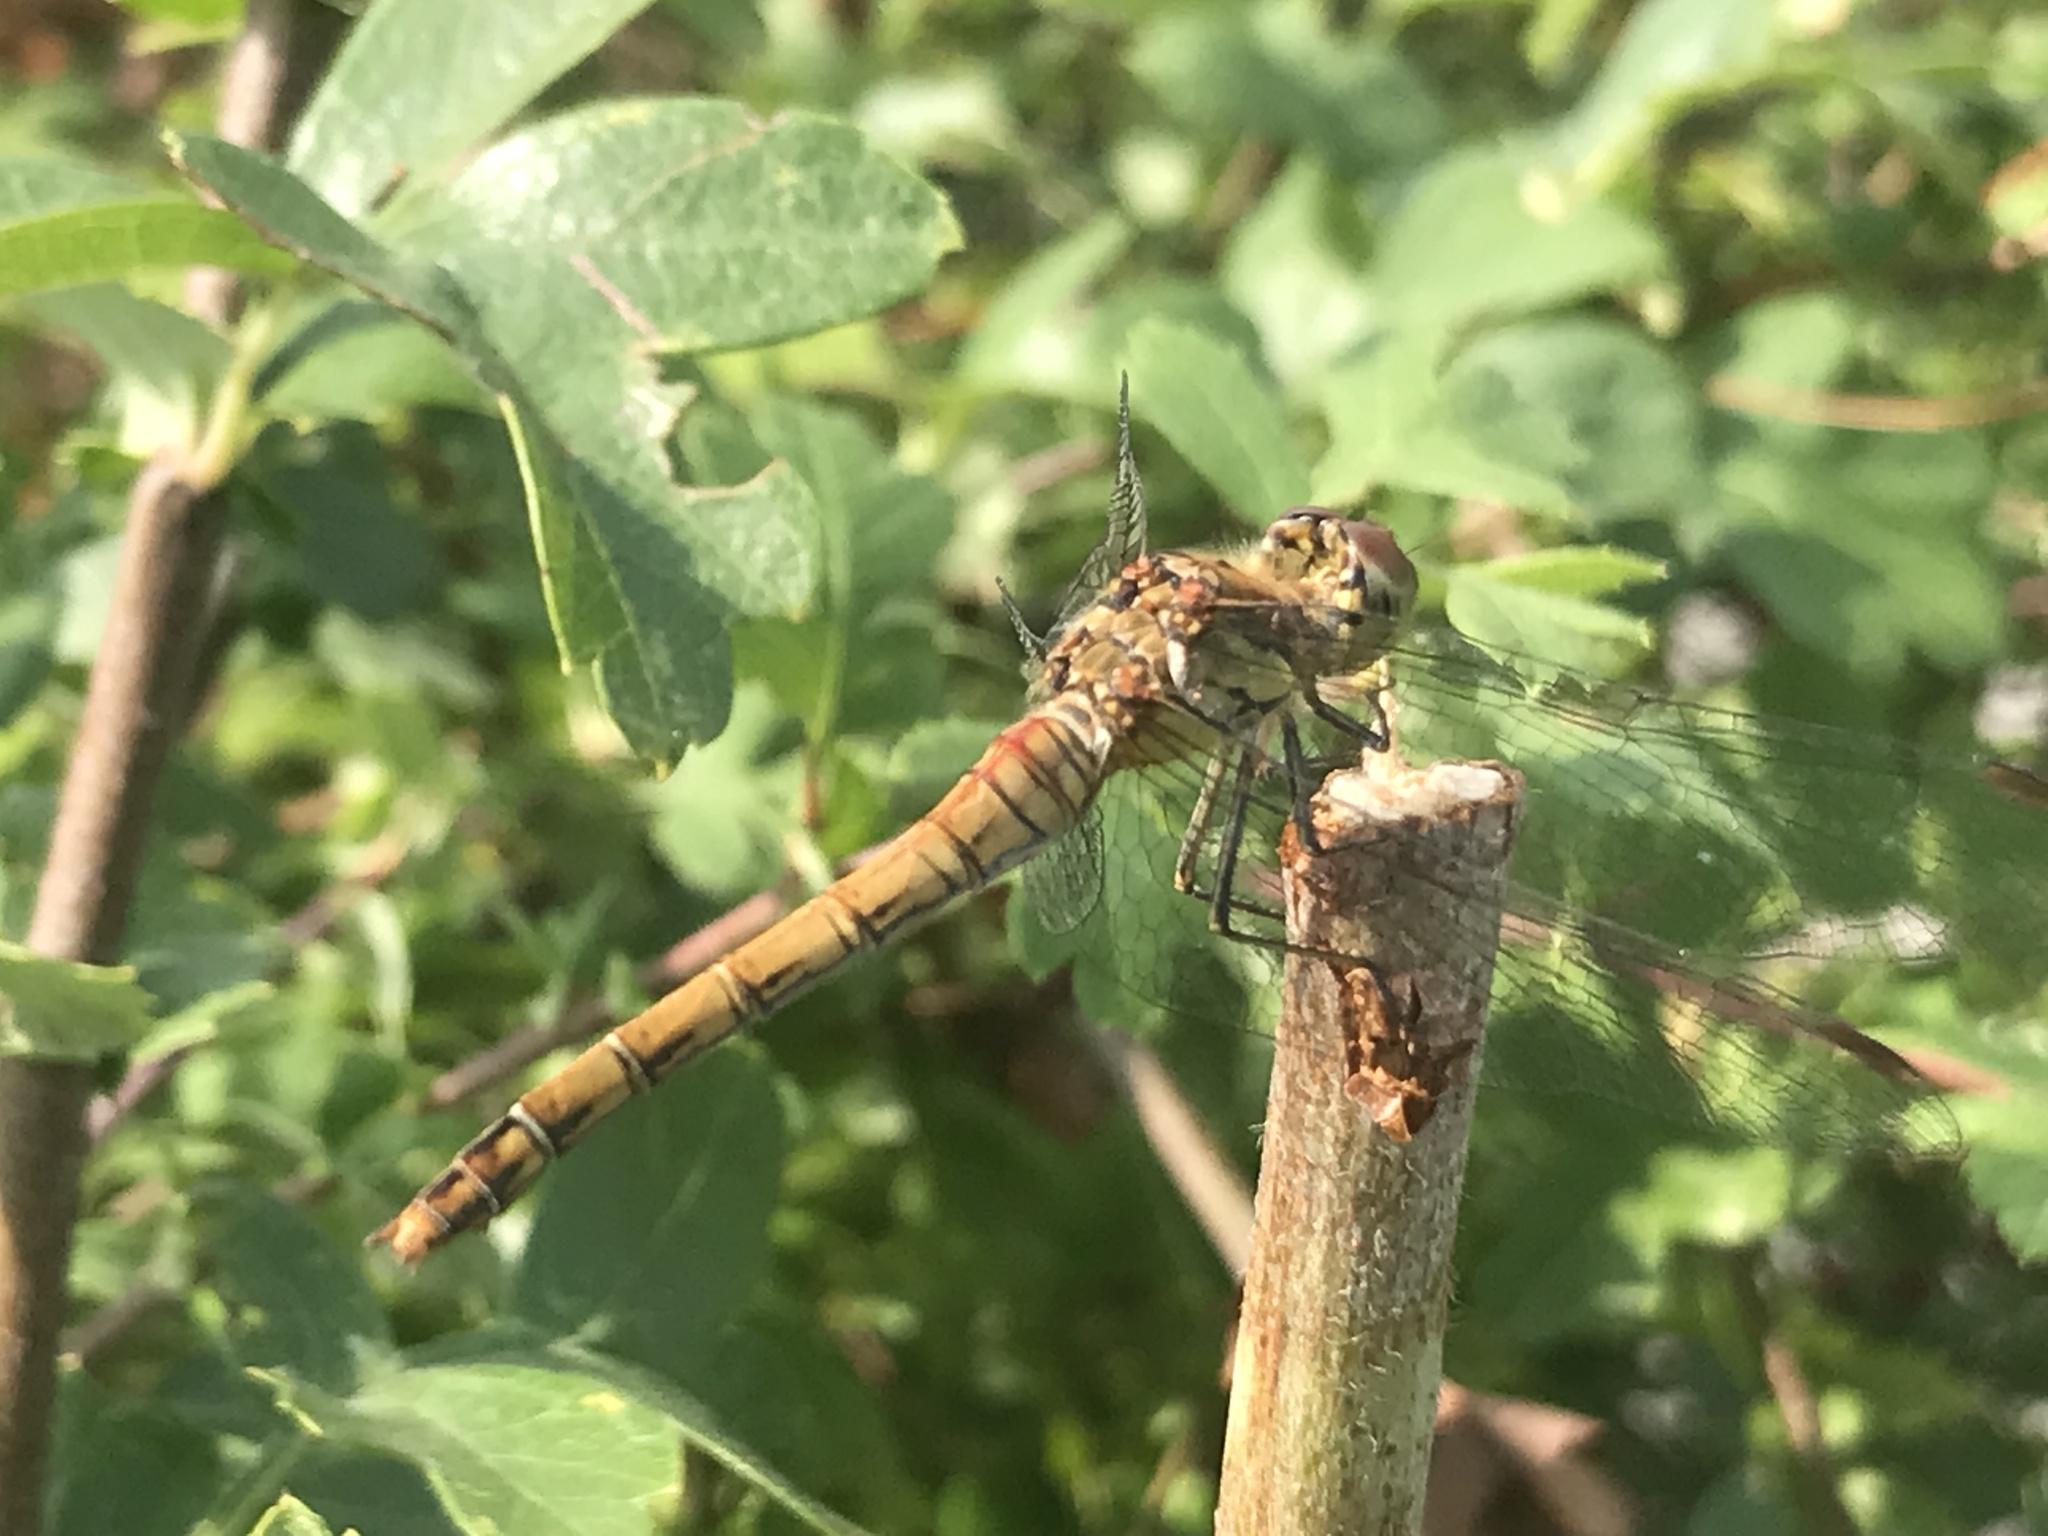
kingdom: Animalia
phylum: Arthropoda
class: Insecta
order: Odonata
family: Libellulidae
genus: Sympetrum
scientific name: Sympetrum striolatum
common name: Common darter
